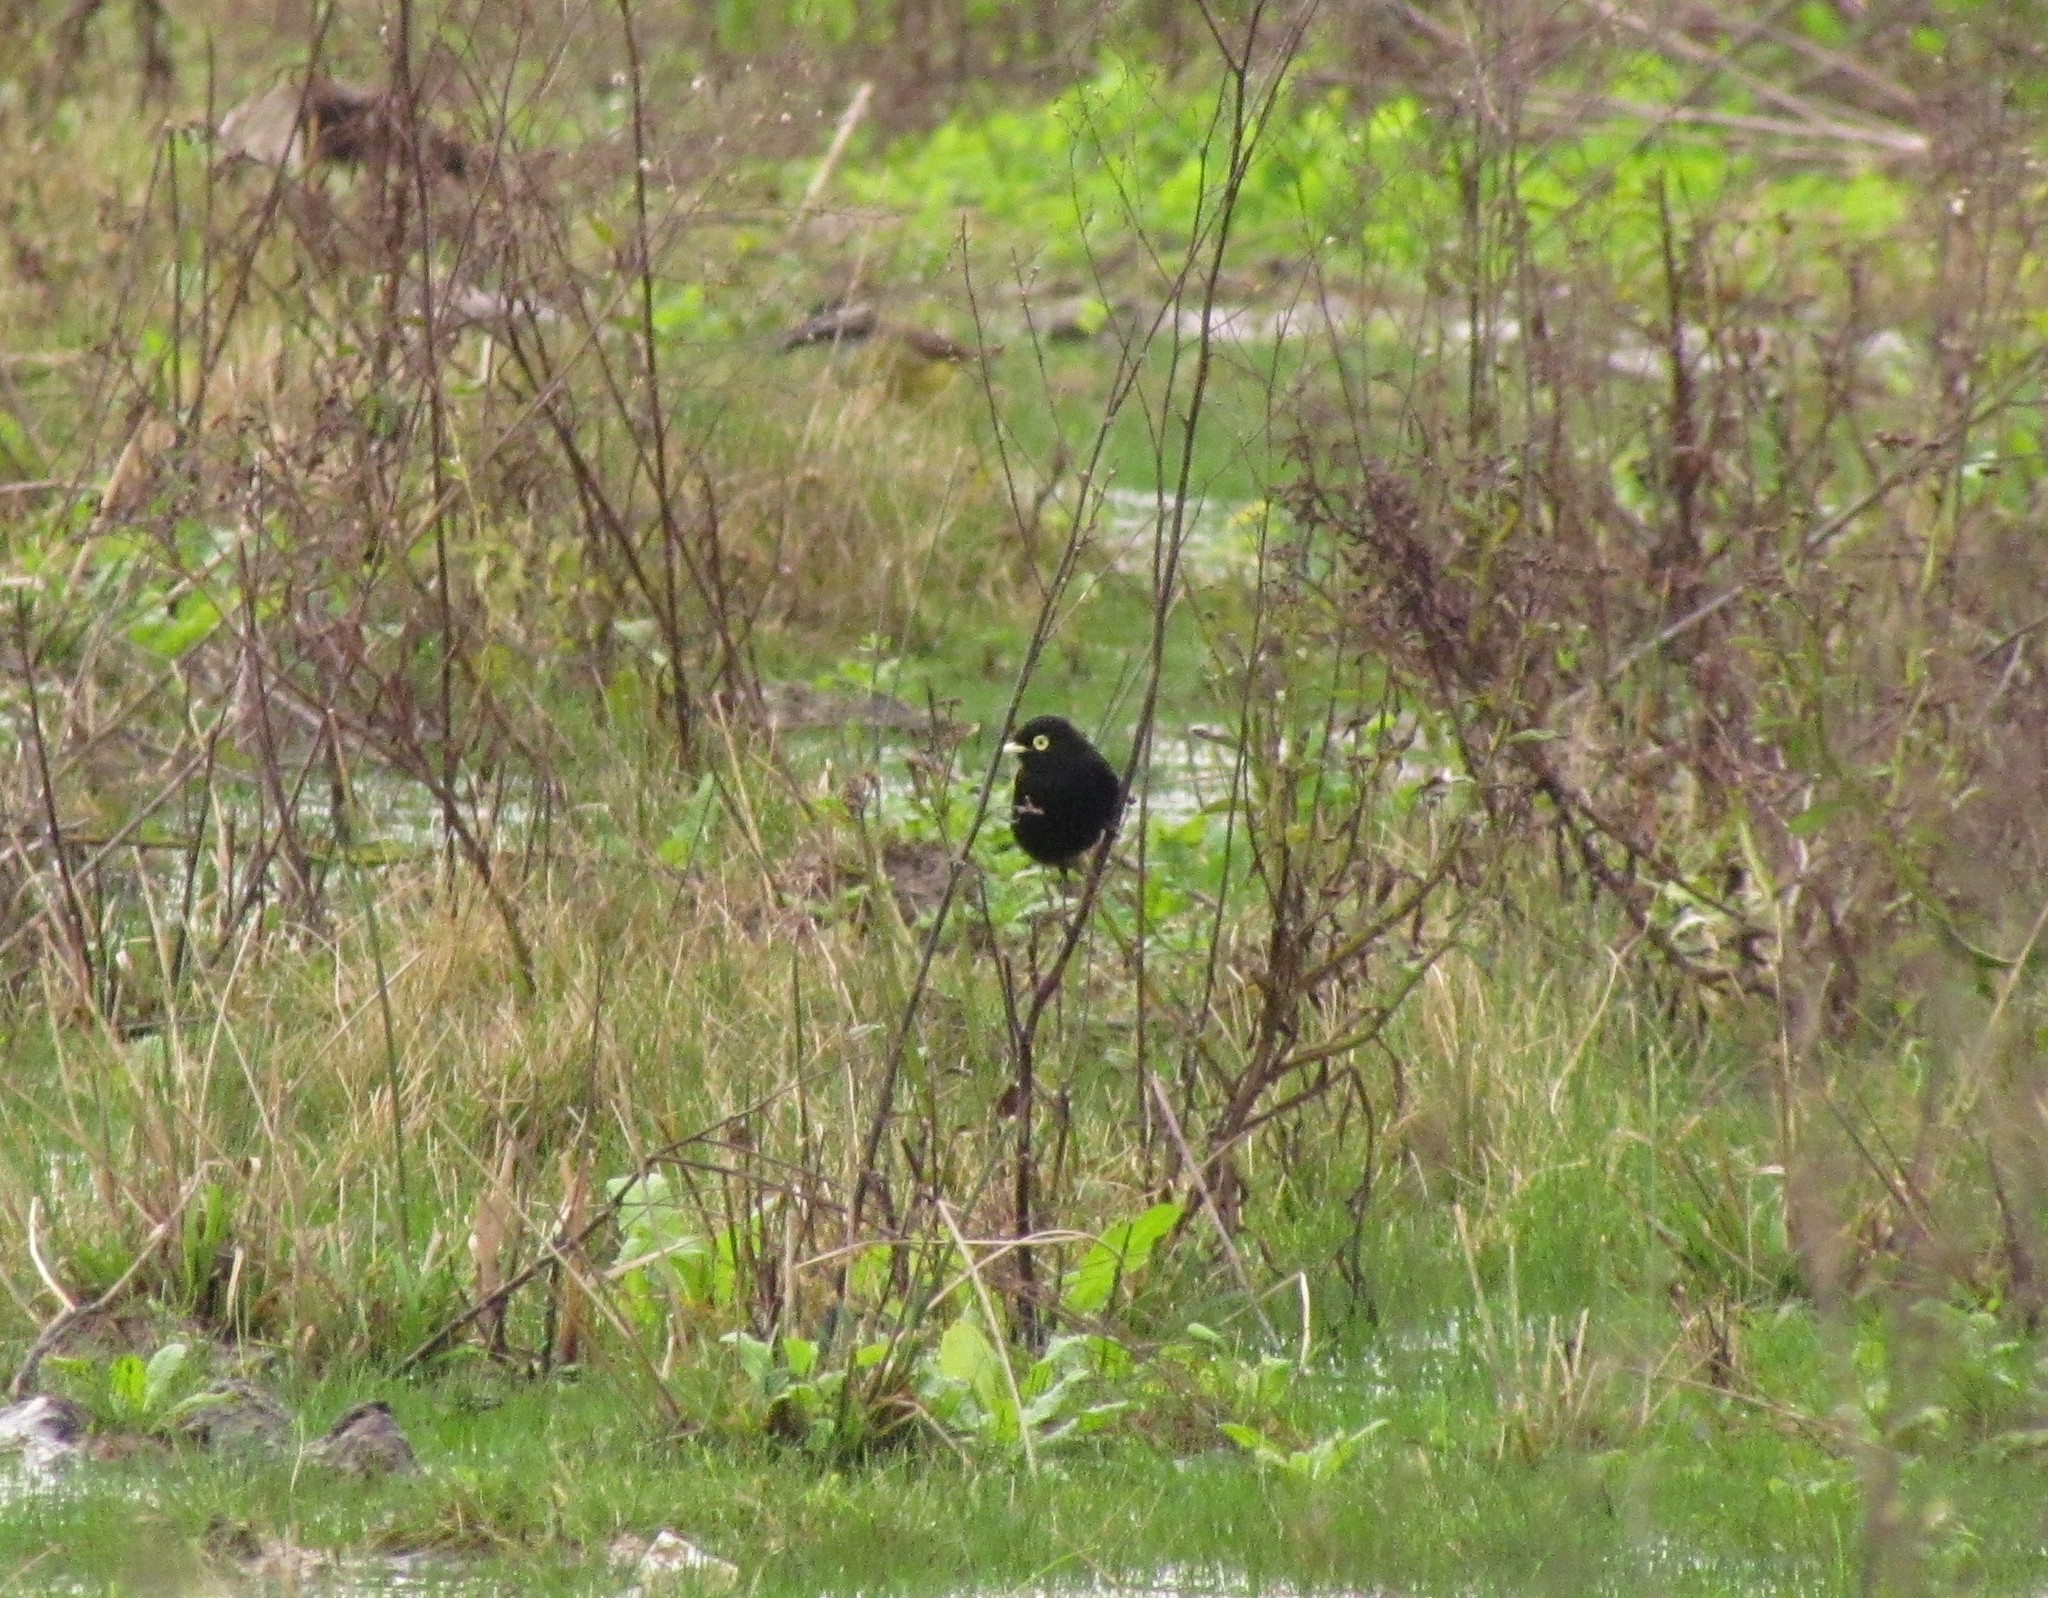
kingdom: Animalia
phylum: Chordata
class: Aves
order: Passeriformes
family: Tyrannidae
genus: Hymenops
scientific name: Hymenops perspicillatus
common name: Spectacled tyrant
